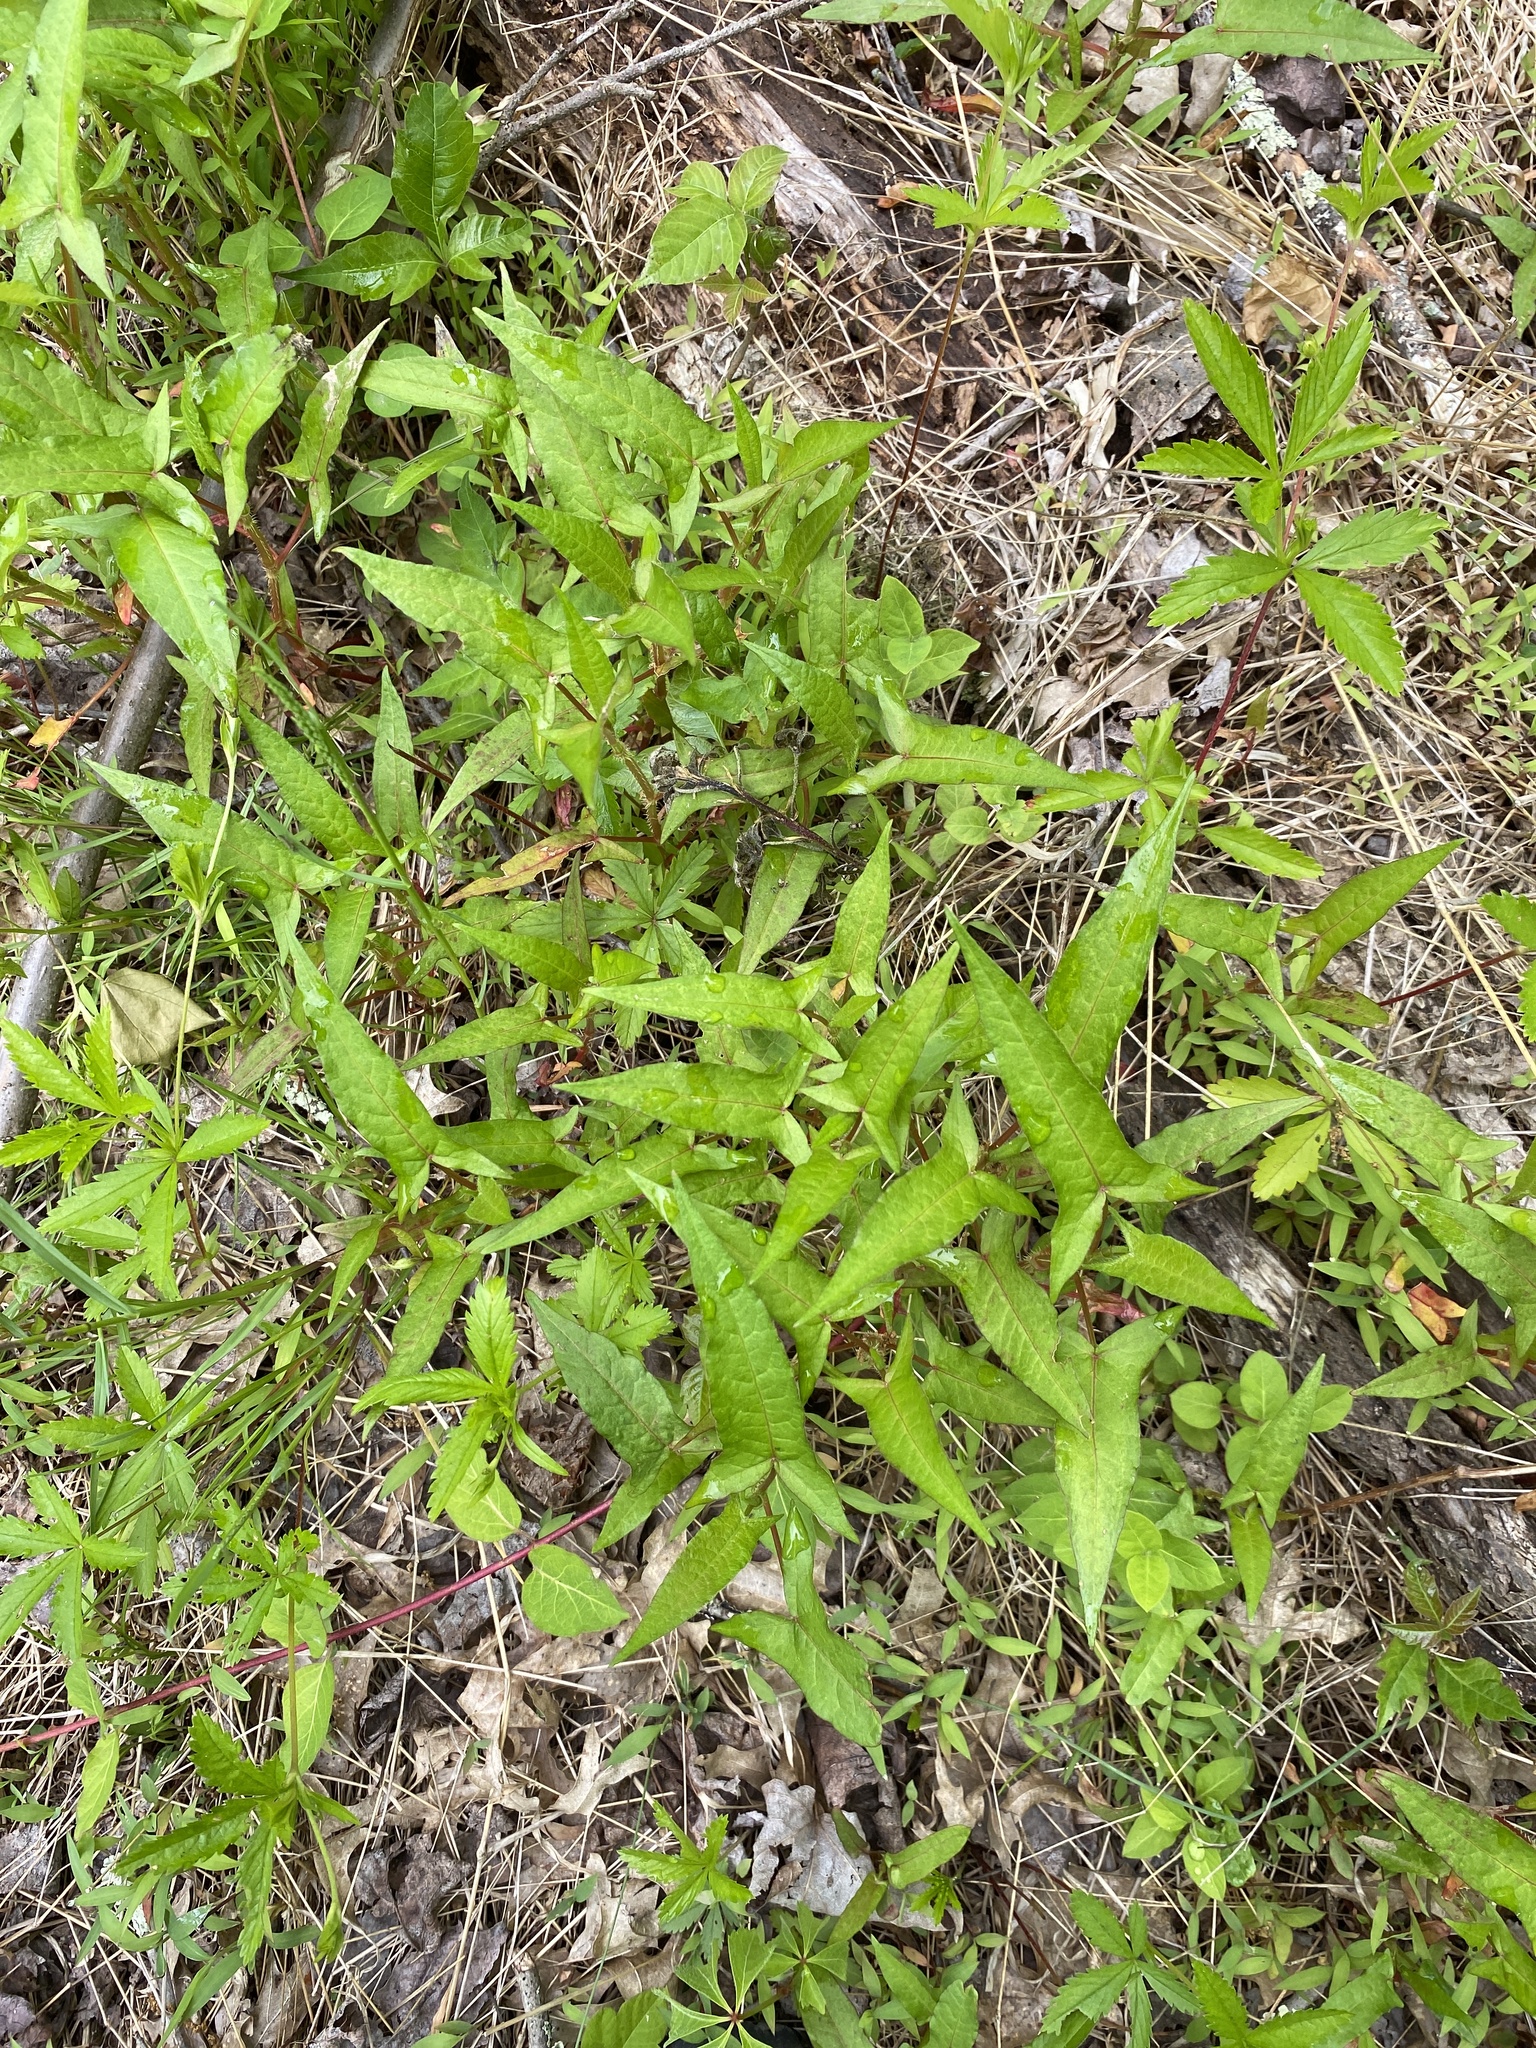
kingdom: Plantae
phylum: Tracheophyta
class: Magnoliopsida
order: Caryophyllales
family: Polygonaceae
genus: Persicaria
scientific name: Persicaria arifolia
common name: Halberd-leaved tear-thumb
